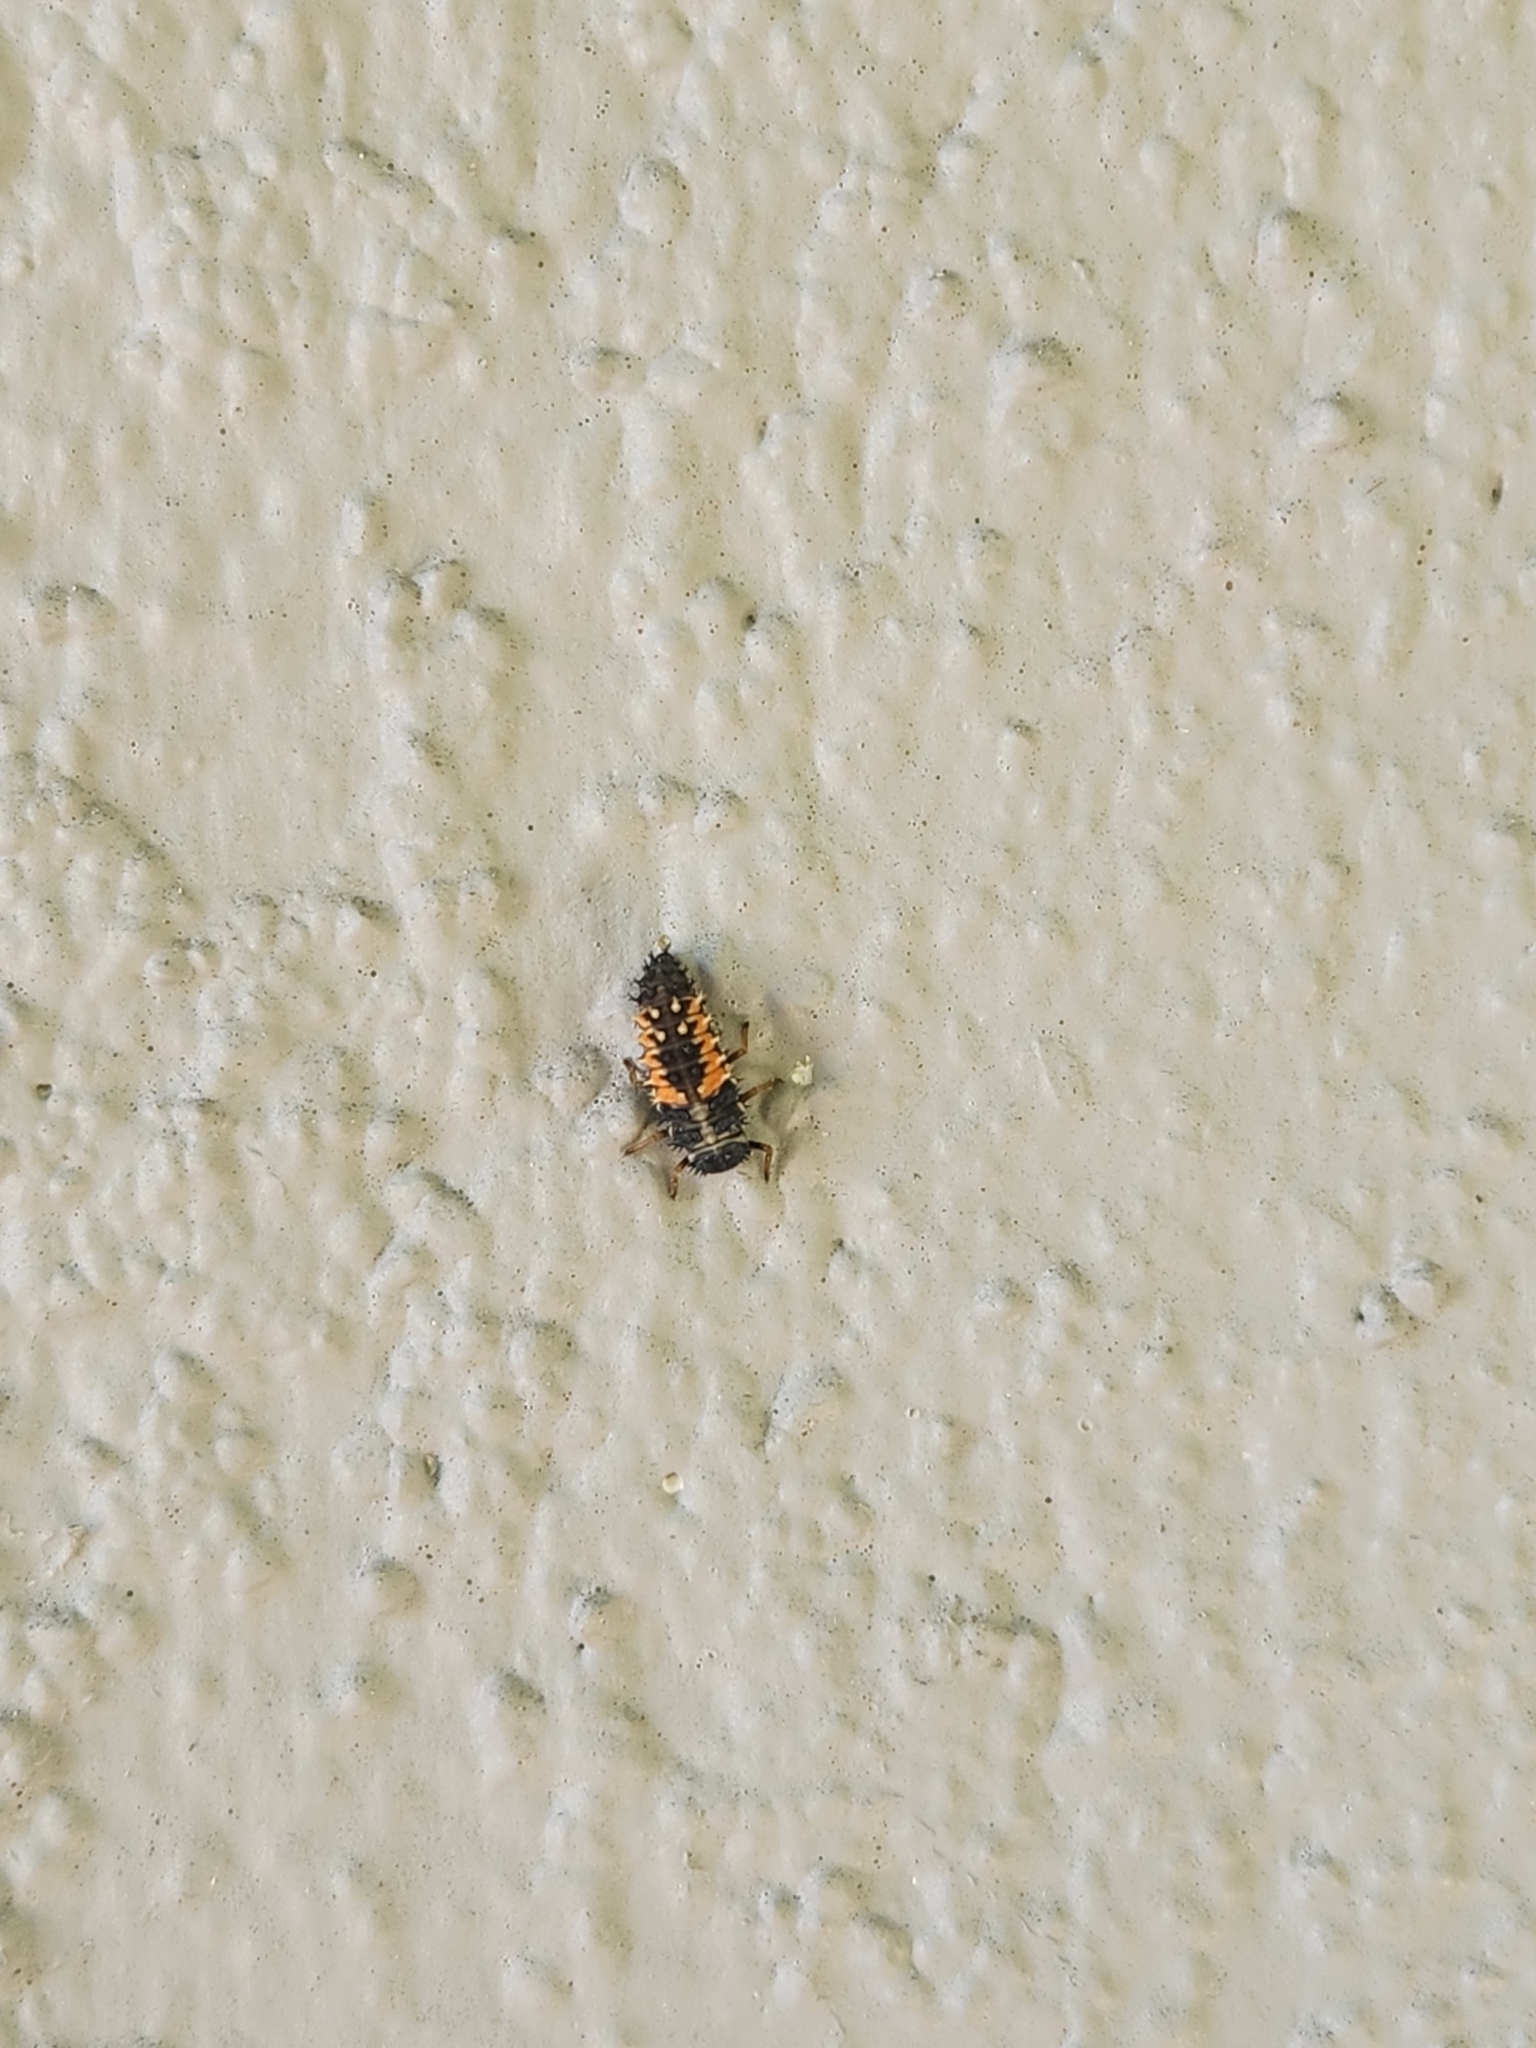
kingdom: Animalia
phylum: Arthropoda
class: Insecta
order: Coleoptera
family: Coccinellidae
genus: Harmonia
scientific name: Harmonia axyridis
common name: Harlequin ladybird
